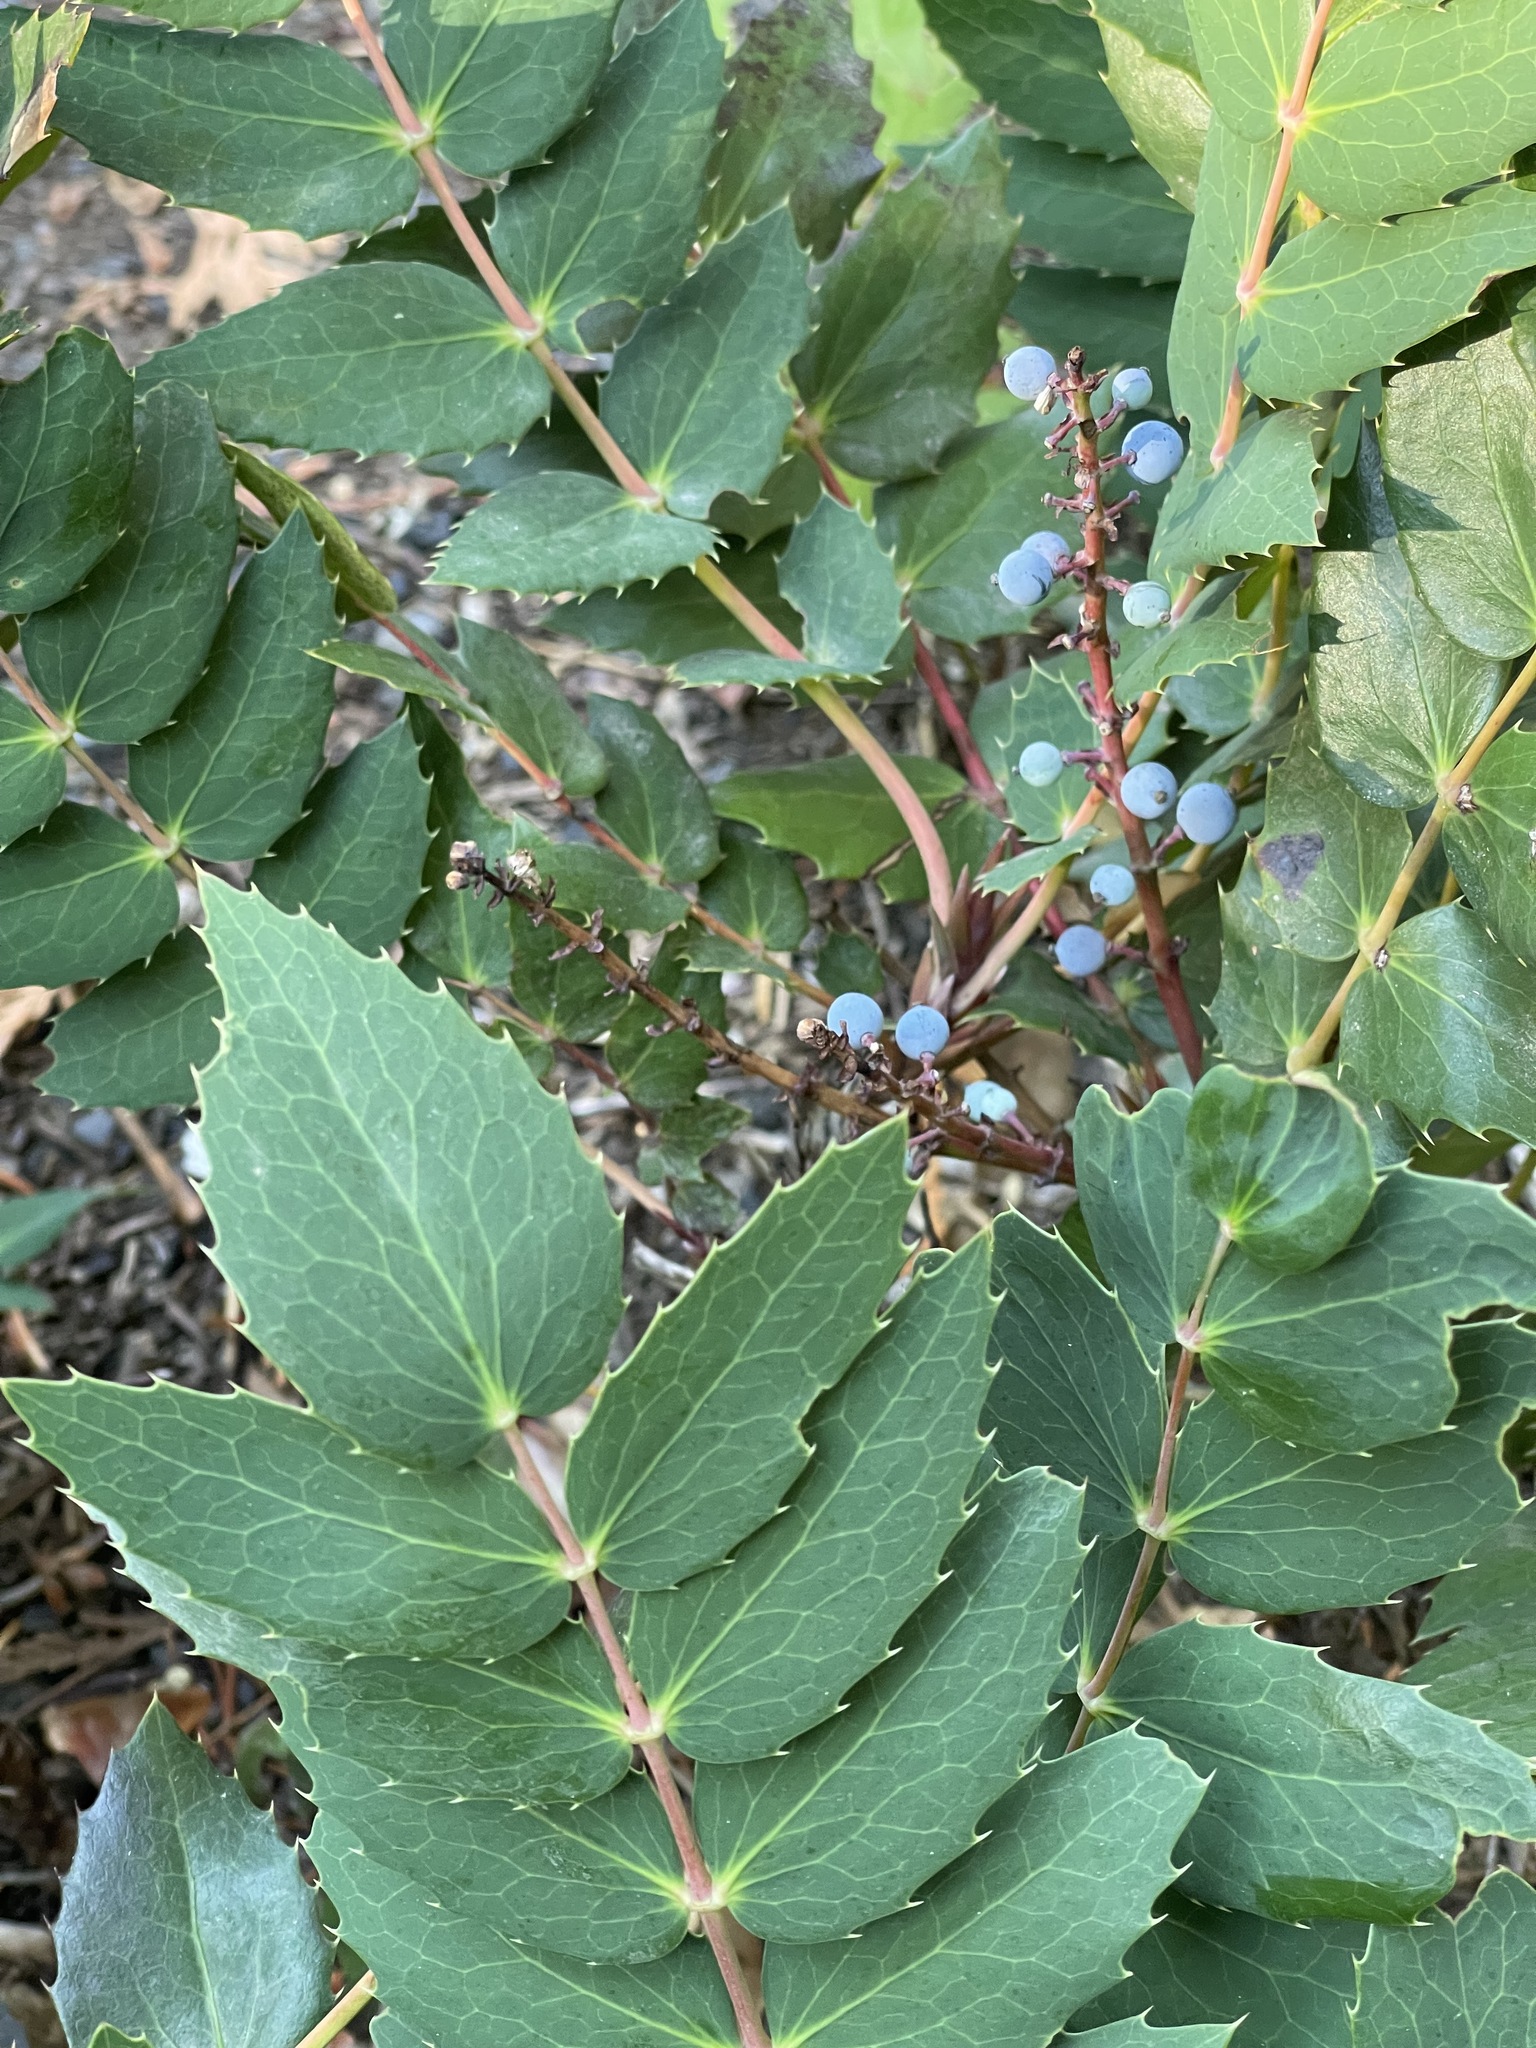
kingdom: Plantae
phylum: Tracheophyta
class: Magnoliopsida
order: Ranunculales
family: Berberidaceae
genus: Mahonia
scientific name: Mahonia nervosa
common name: Cascade oregon-grape
